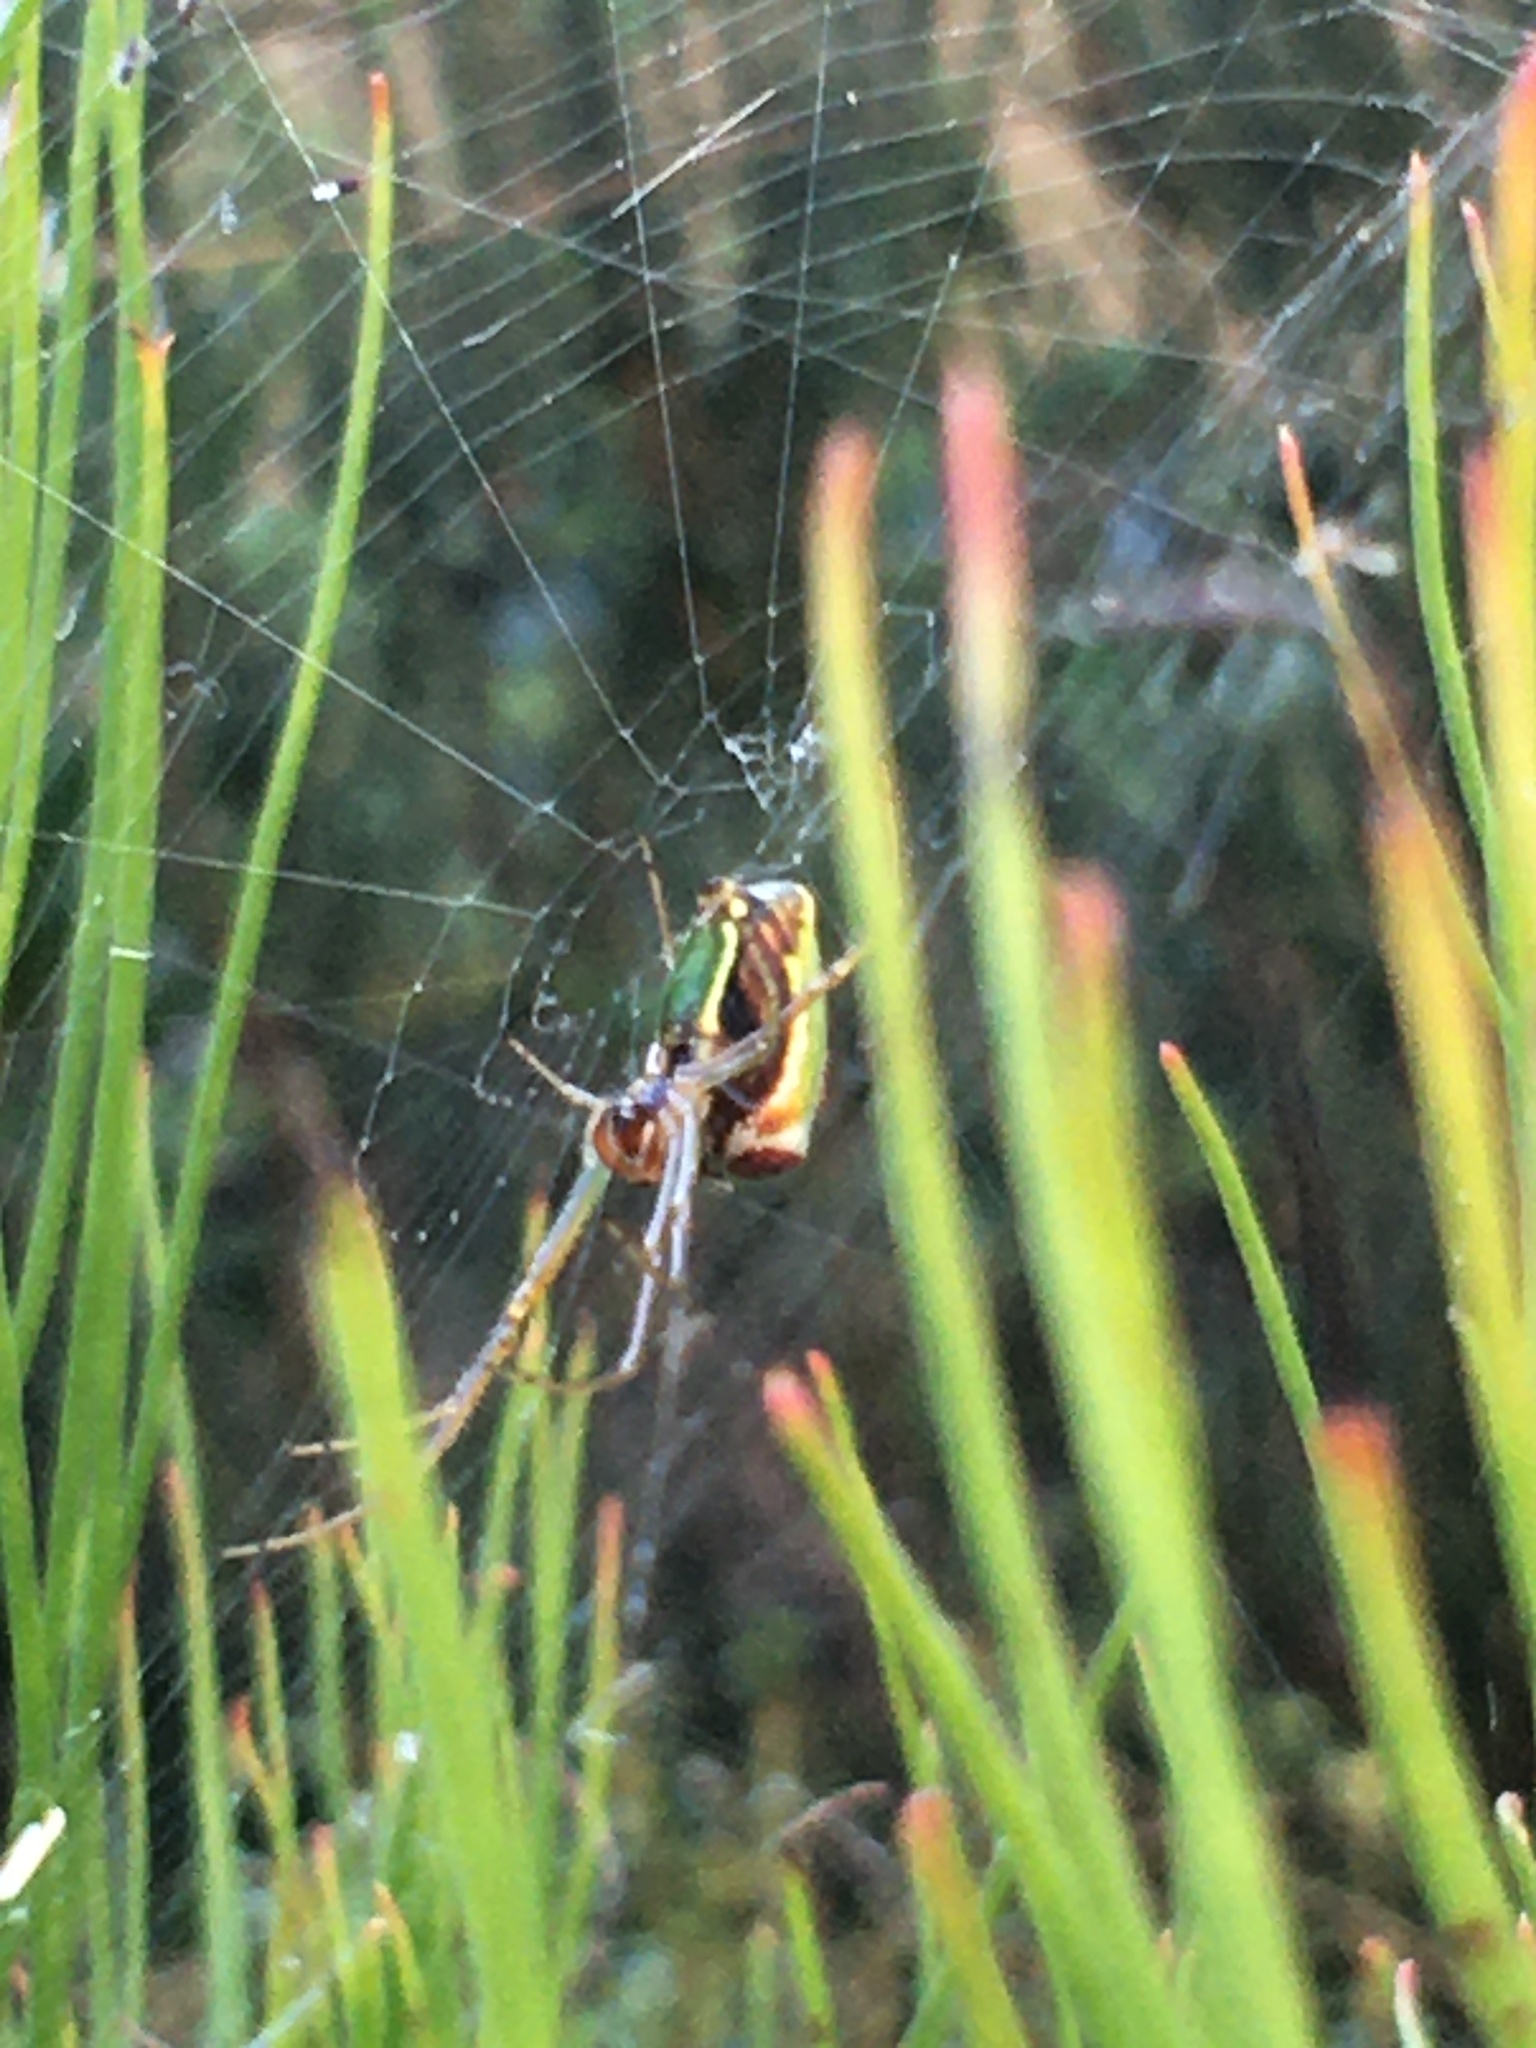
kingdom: Animalia
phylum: Arthropoda
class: Arachnida
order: Araneae
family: Tetragnathidae
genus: Leucauge
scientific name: Leucauge festiva
